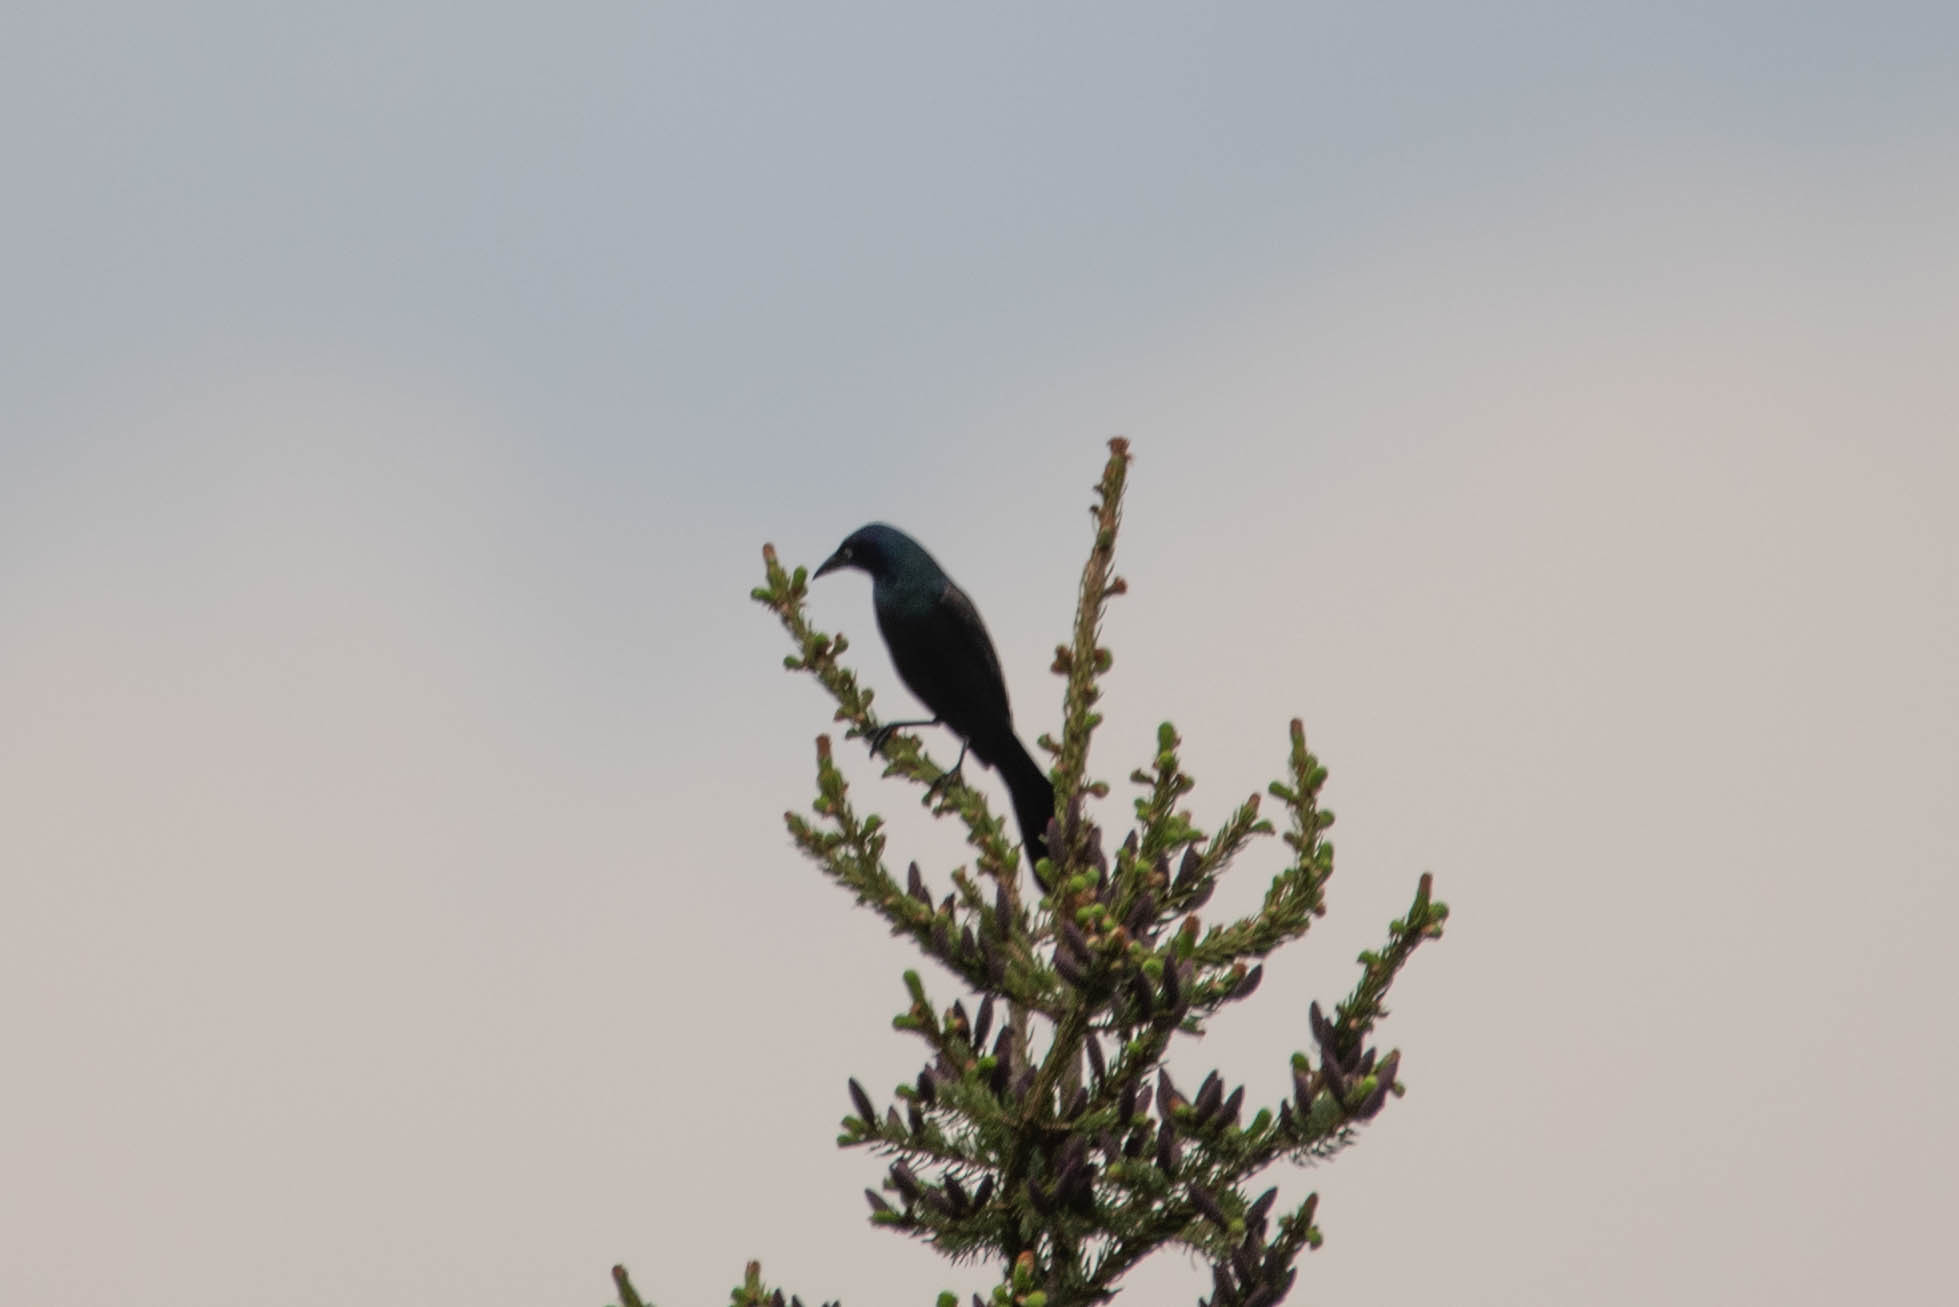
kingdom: Animalia
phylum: Chordata
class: Aves
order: Passeriformes
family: Icteridae
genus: Quiscalus
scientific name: Quiscalus quiscula
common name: Common grackle
